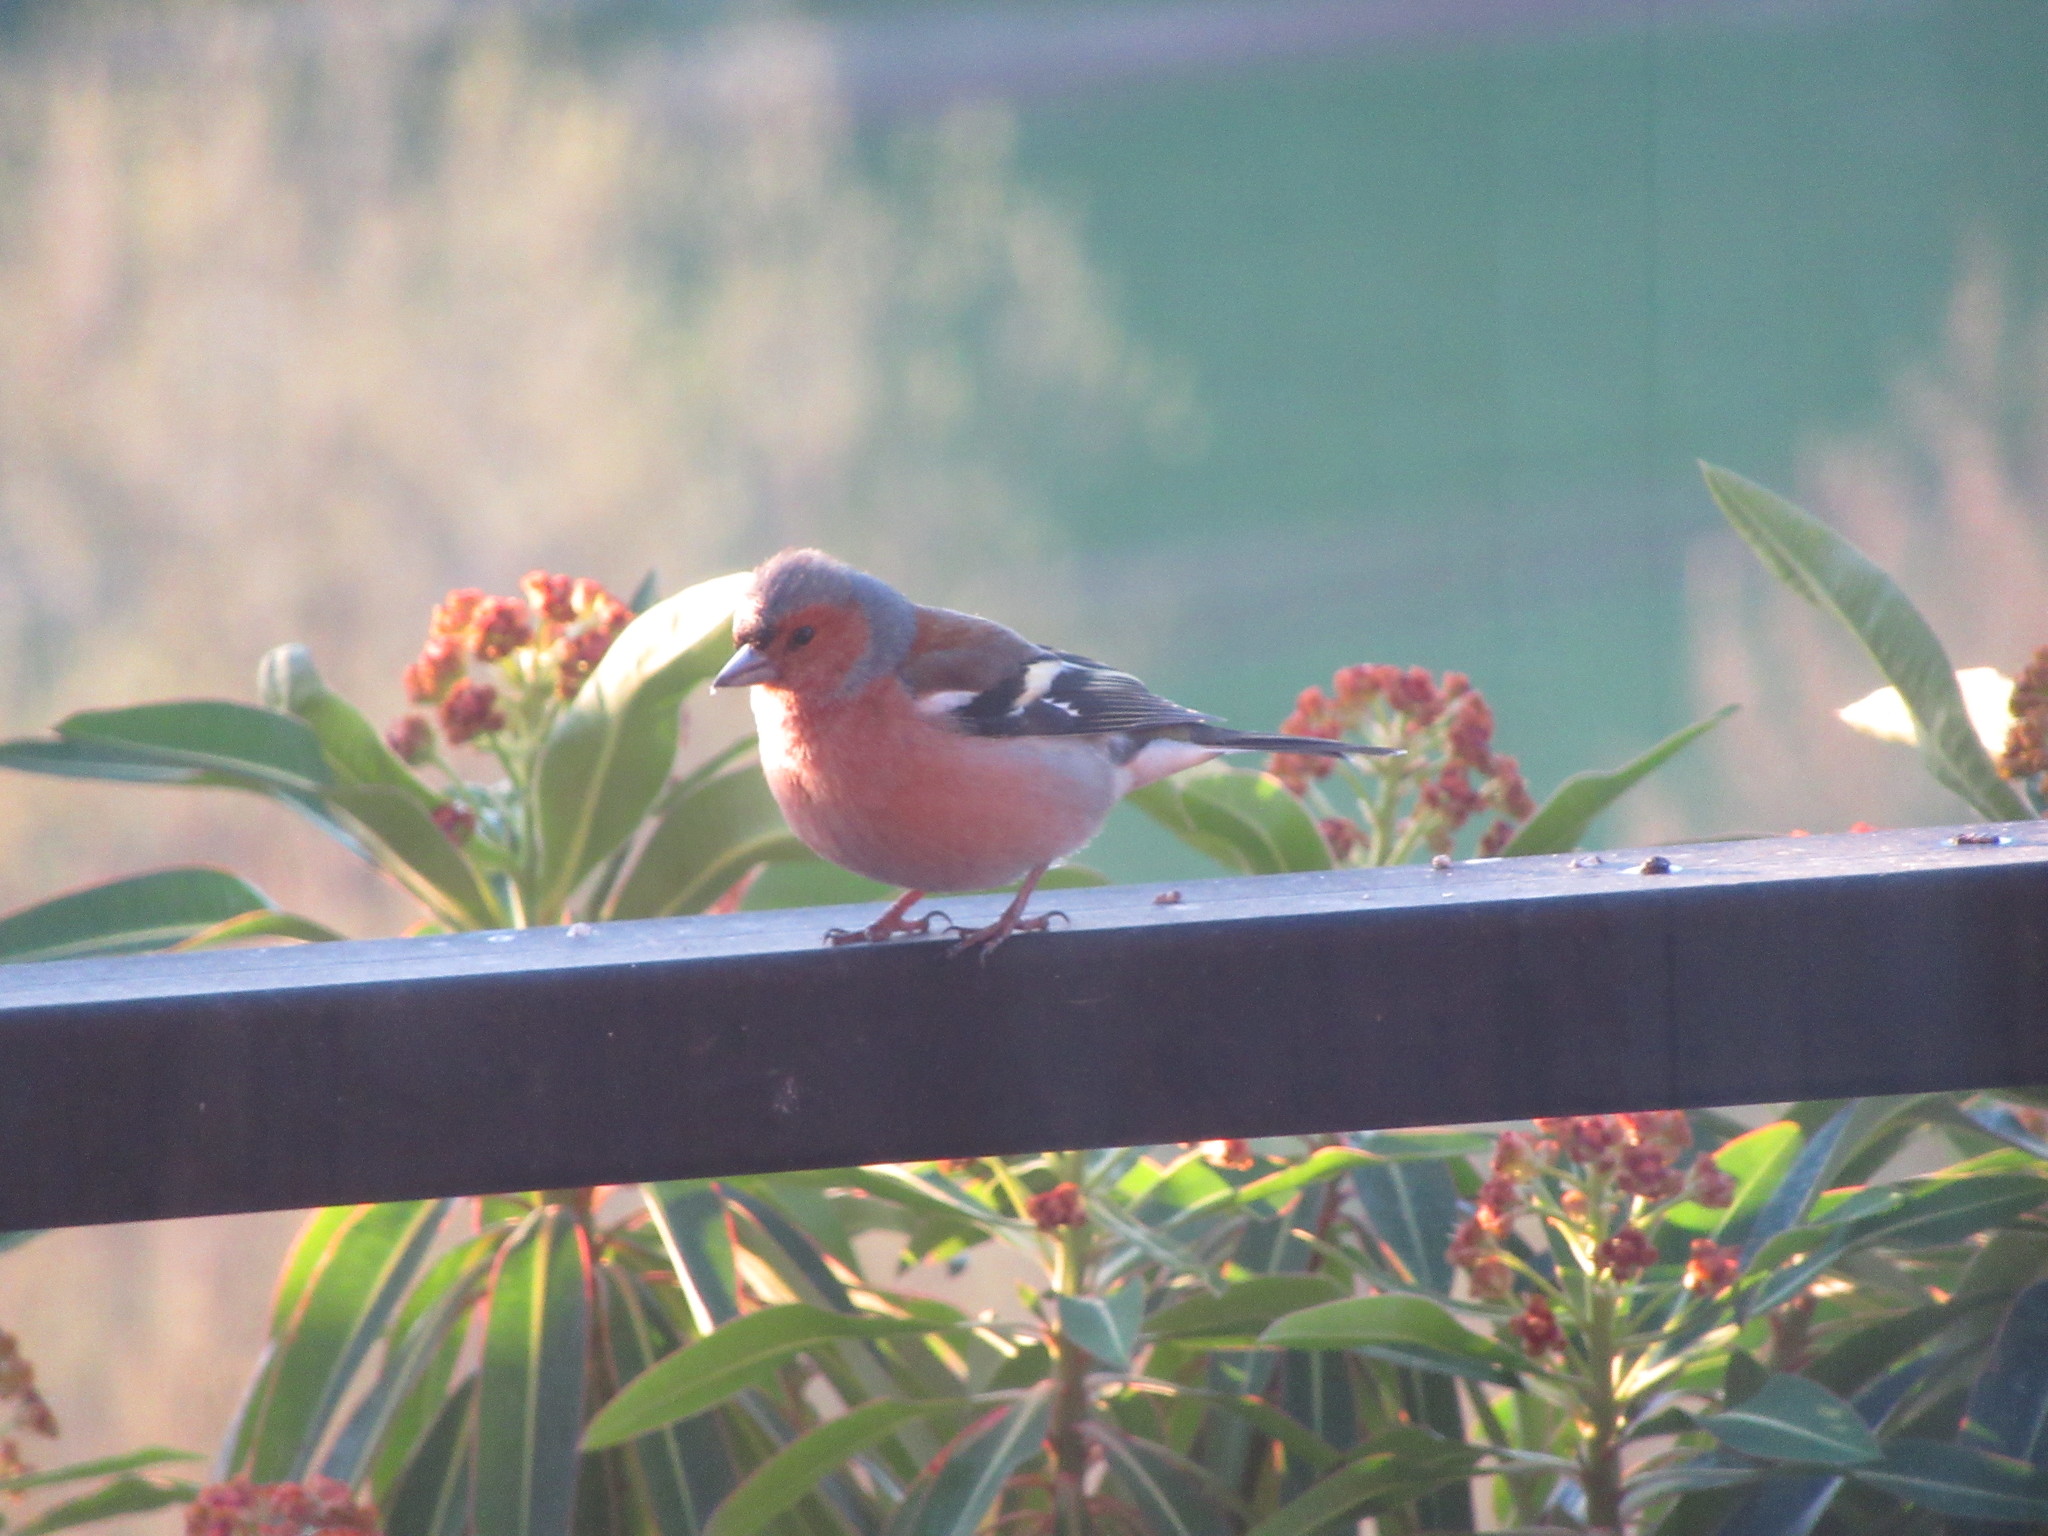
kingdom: Animalia
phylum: Chordata
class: Aves
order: Passeriformes
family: Fringillidae
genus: Fringilla
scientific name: Fringilla coelebs
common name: Common chaffinch
